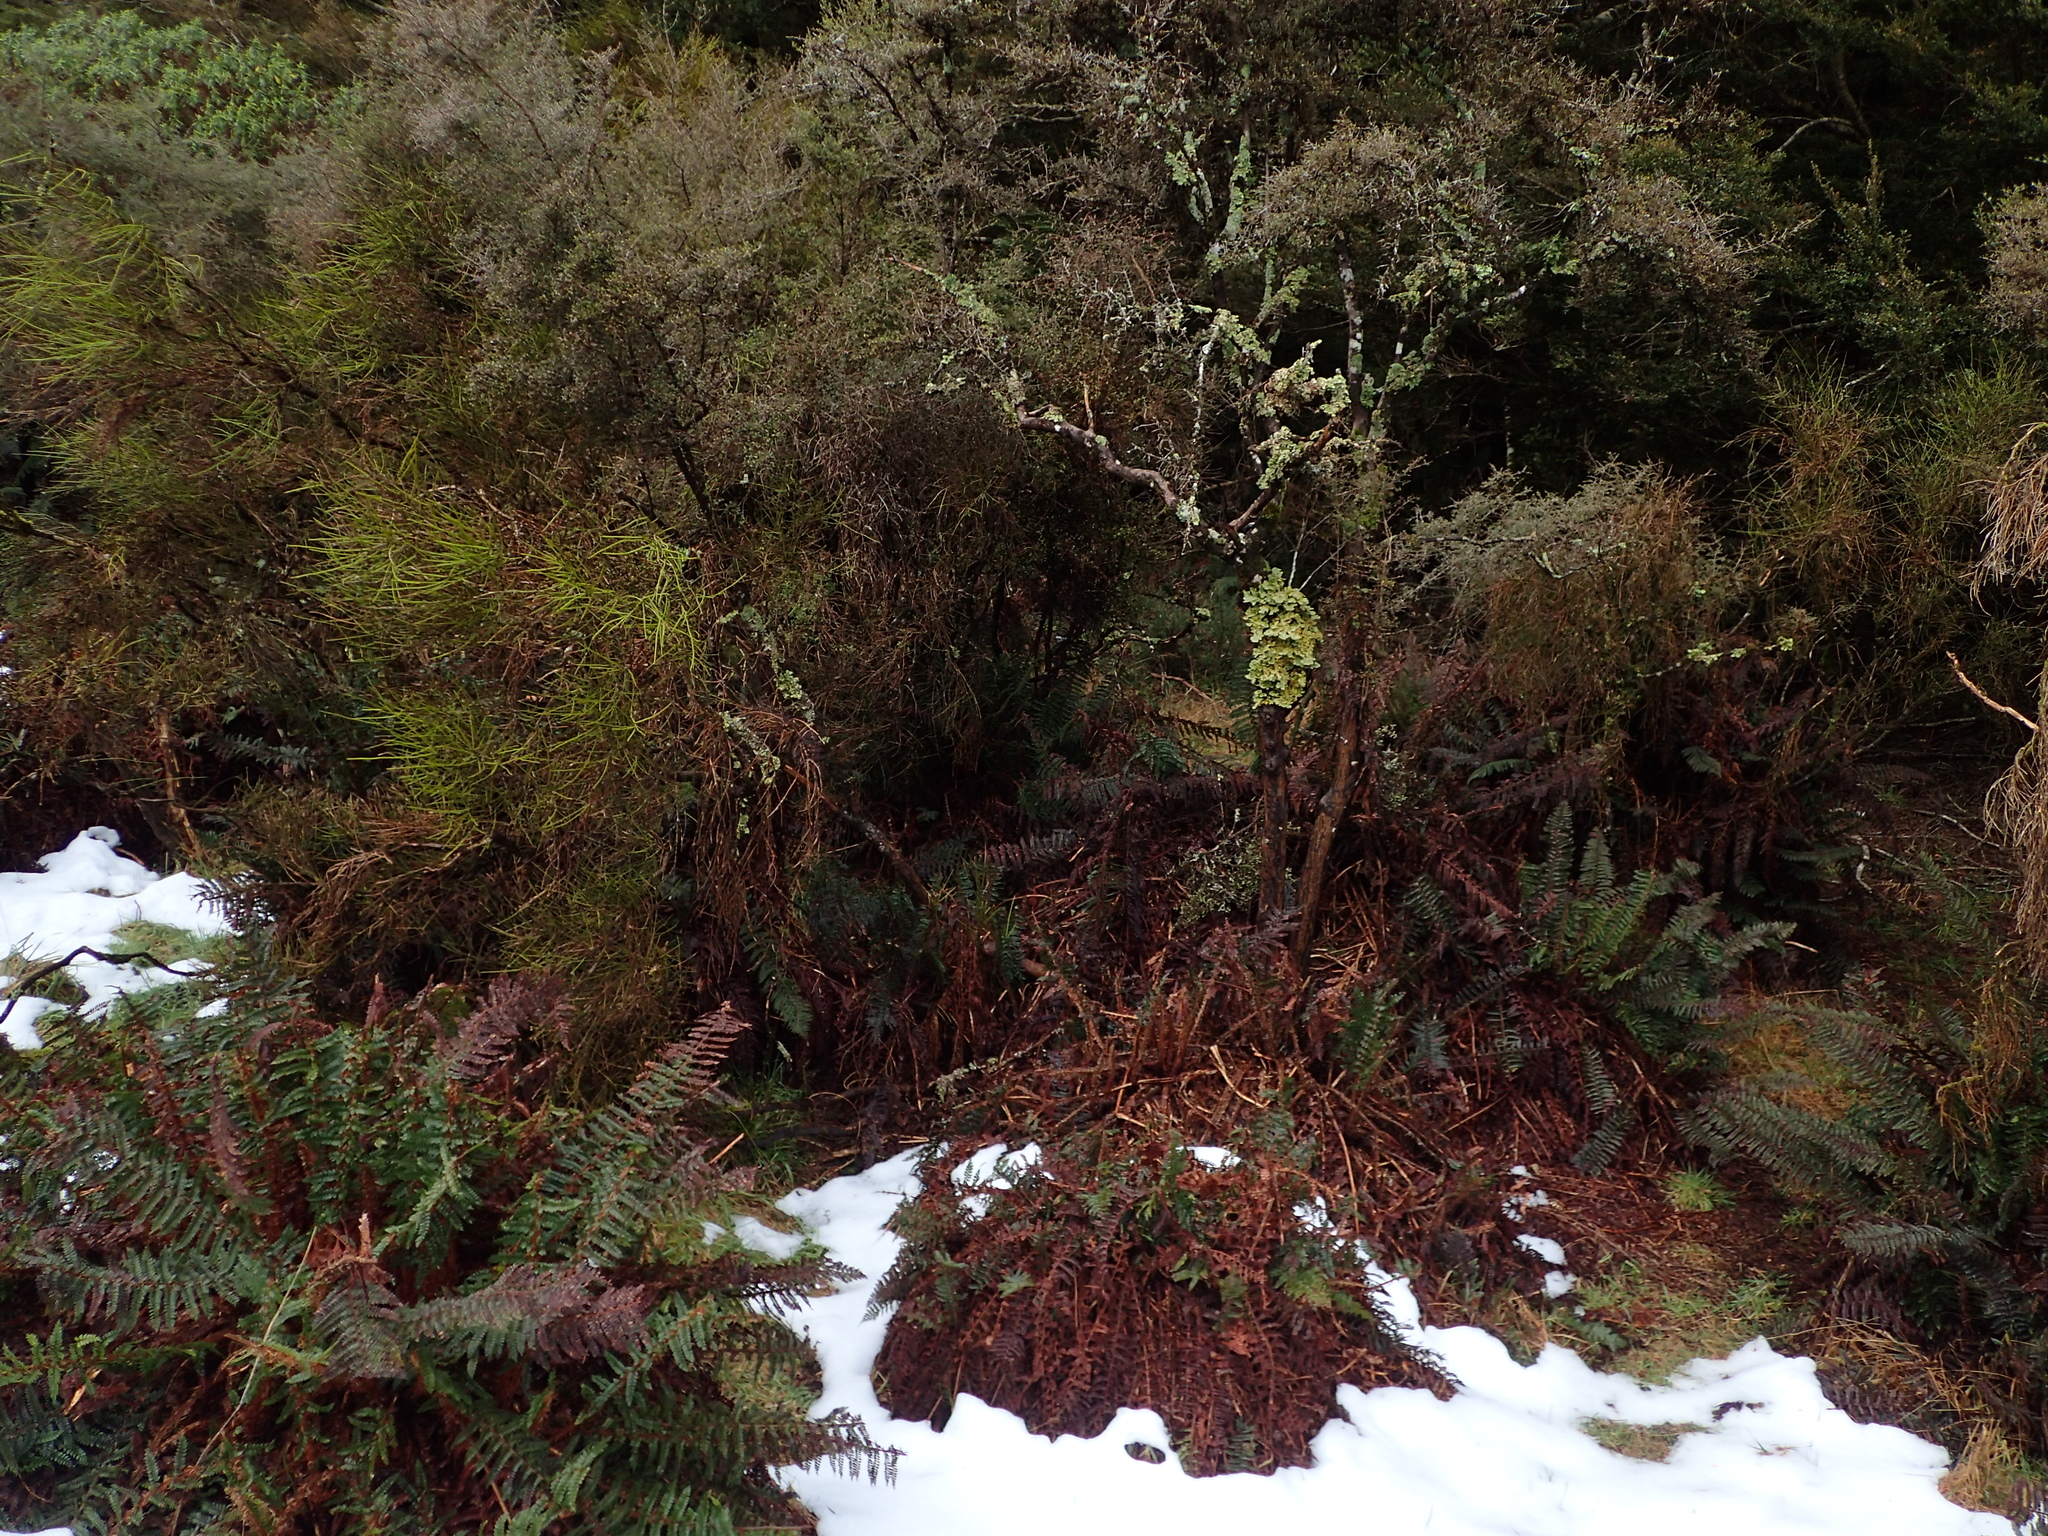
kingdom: Fungi
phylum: Ascomycota
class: Lecanoromycetes
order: Peltigerales
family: Lobariaceae
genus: Yarrumia
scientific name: Yarrumia colensoi
